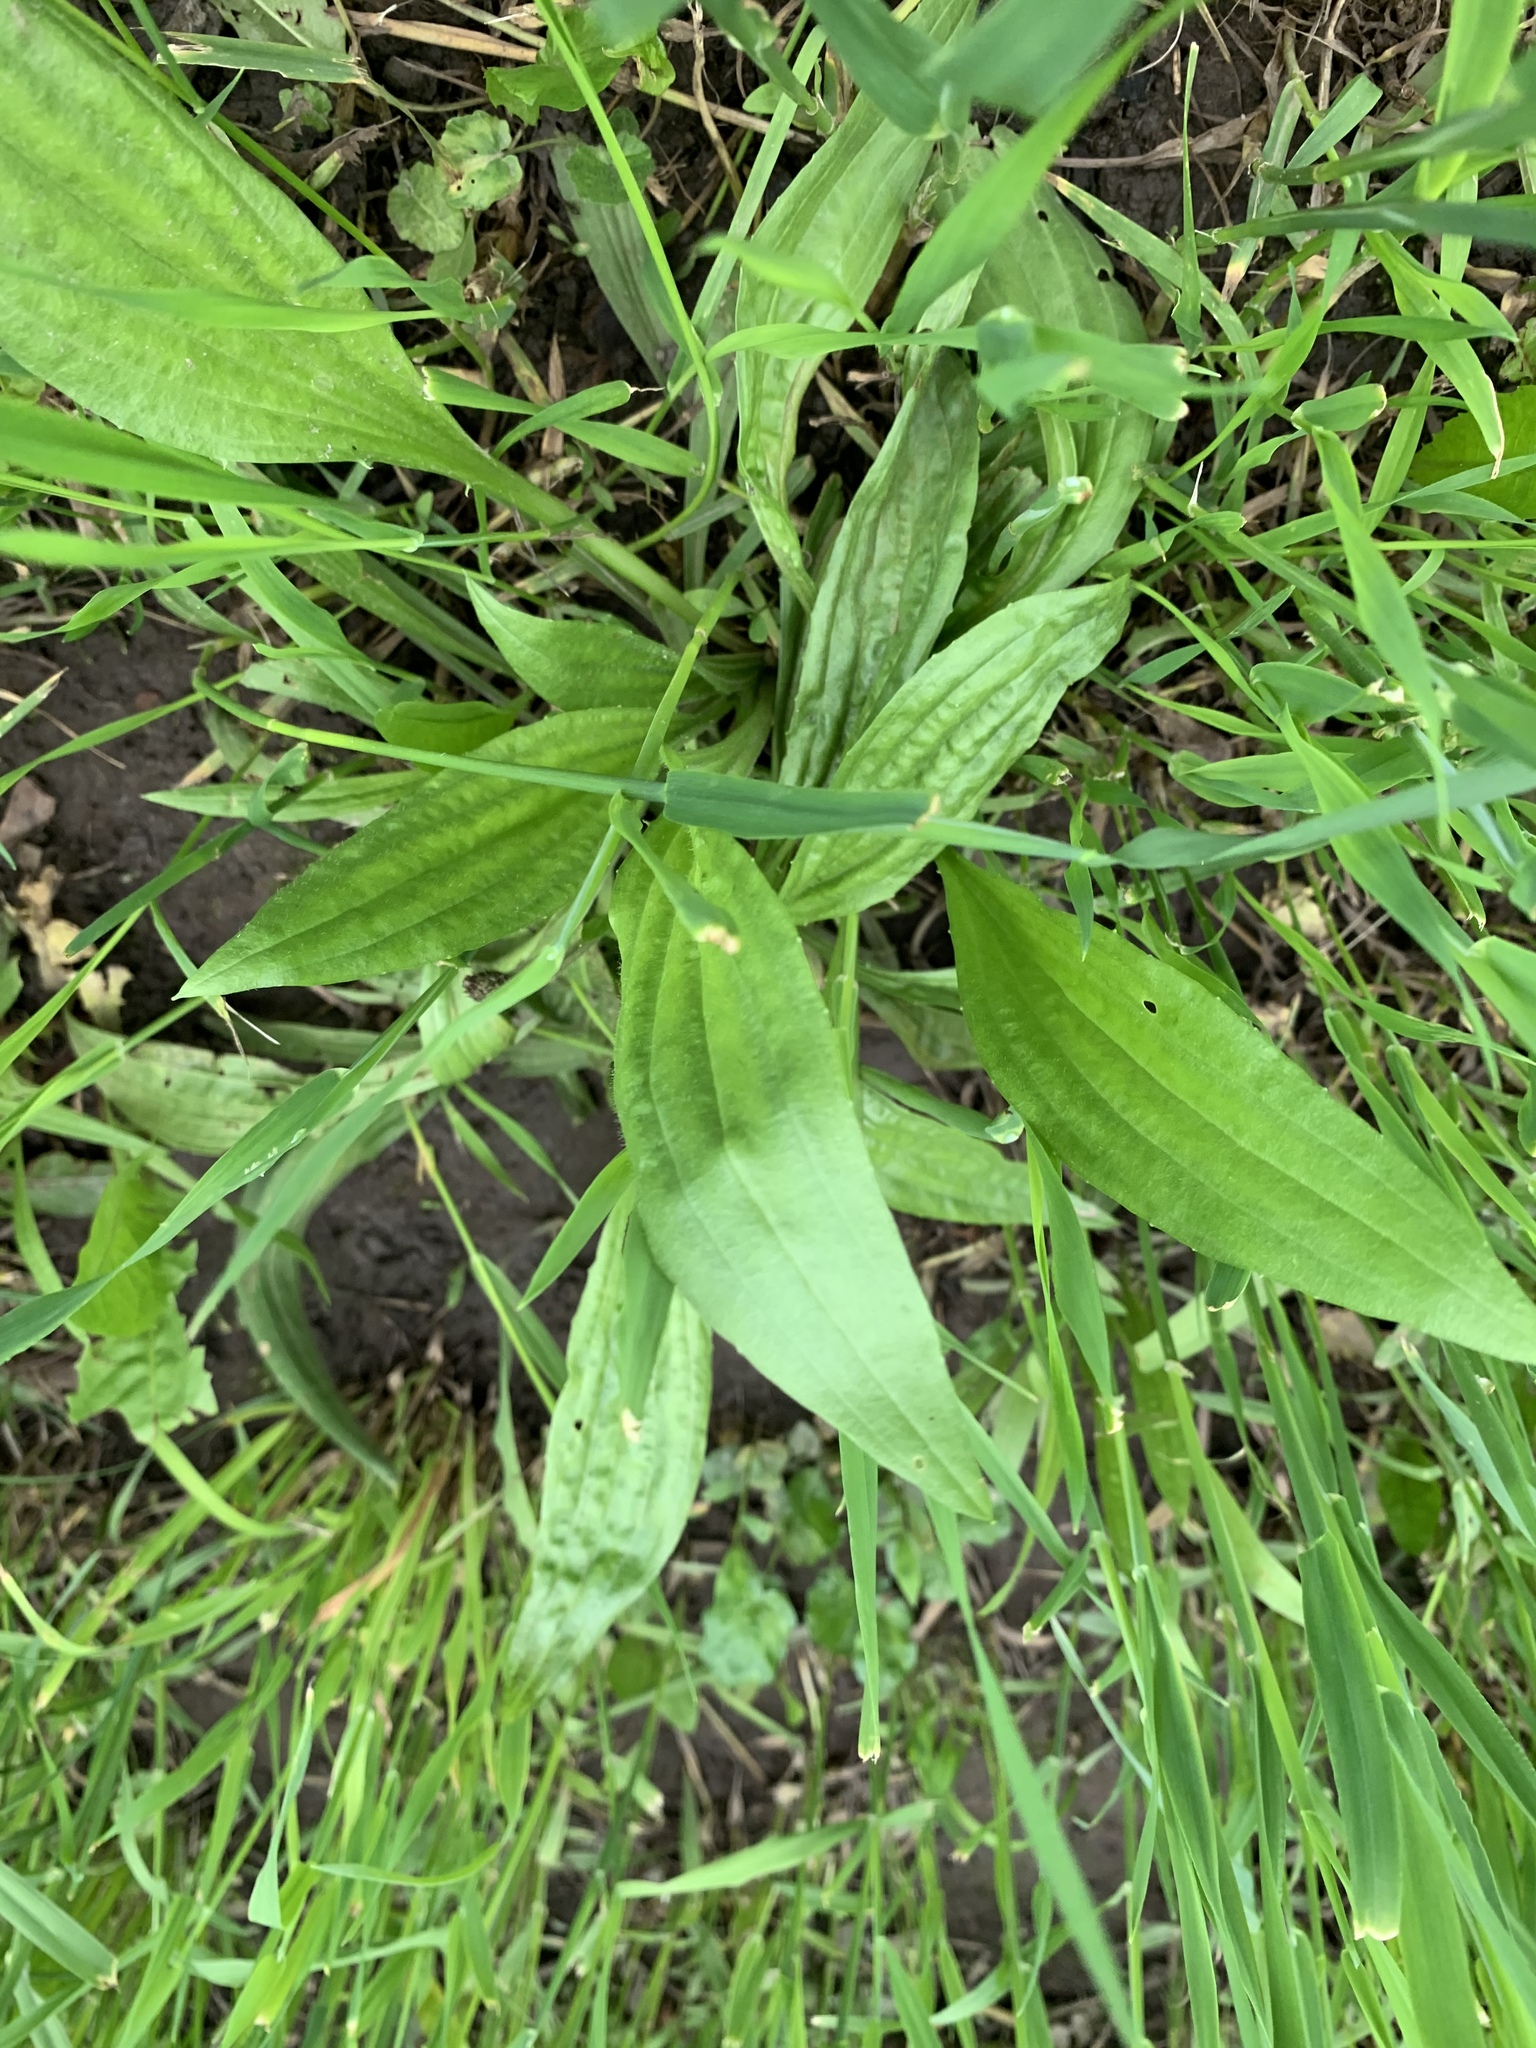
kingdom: Plantae
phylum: Tracheophyta
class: Magnoliopsida
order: Lamiales
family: Plantaginaceae
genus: Plantago
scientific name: Plantago lanceolata
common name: Ribwort plantain
